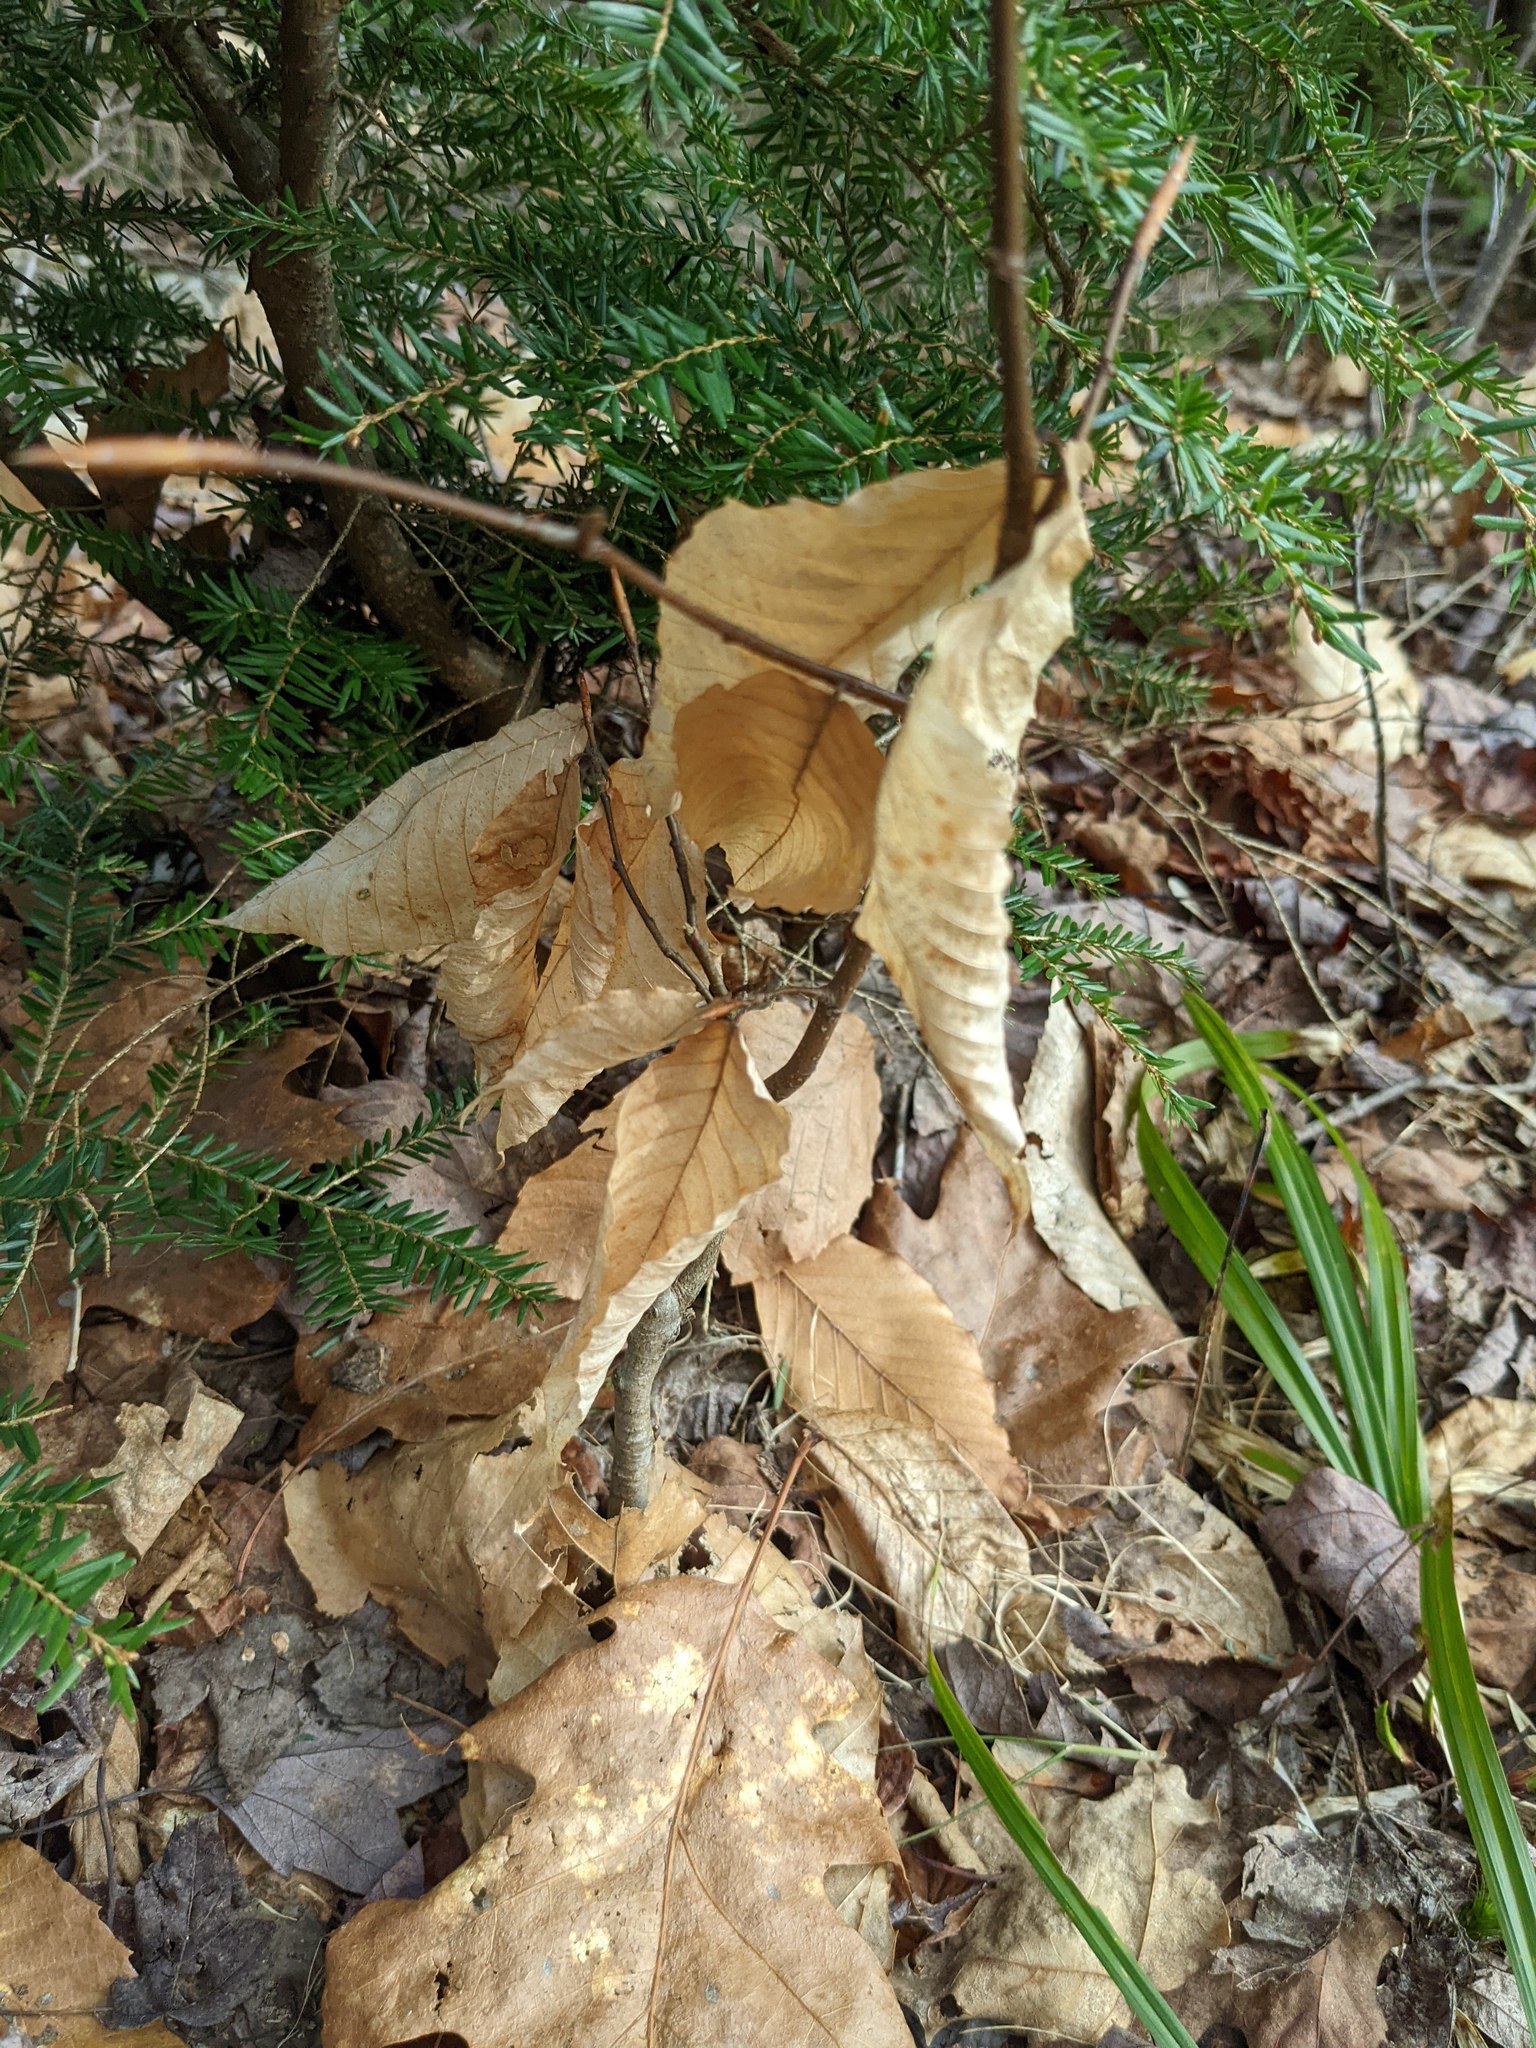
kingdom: Plantae
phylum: Tracheophyta
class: Magnoliopsida
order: Fagales
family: Fagaceae
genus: Fagus
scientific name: Fagus grandifolia
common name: American beech
